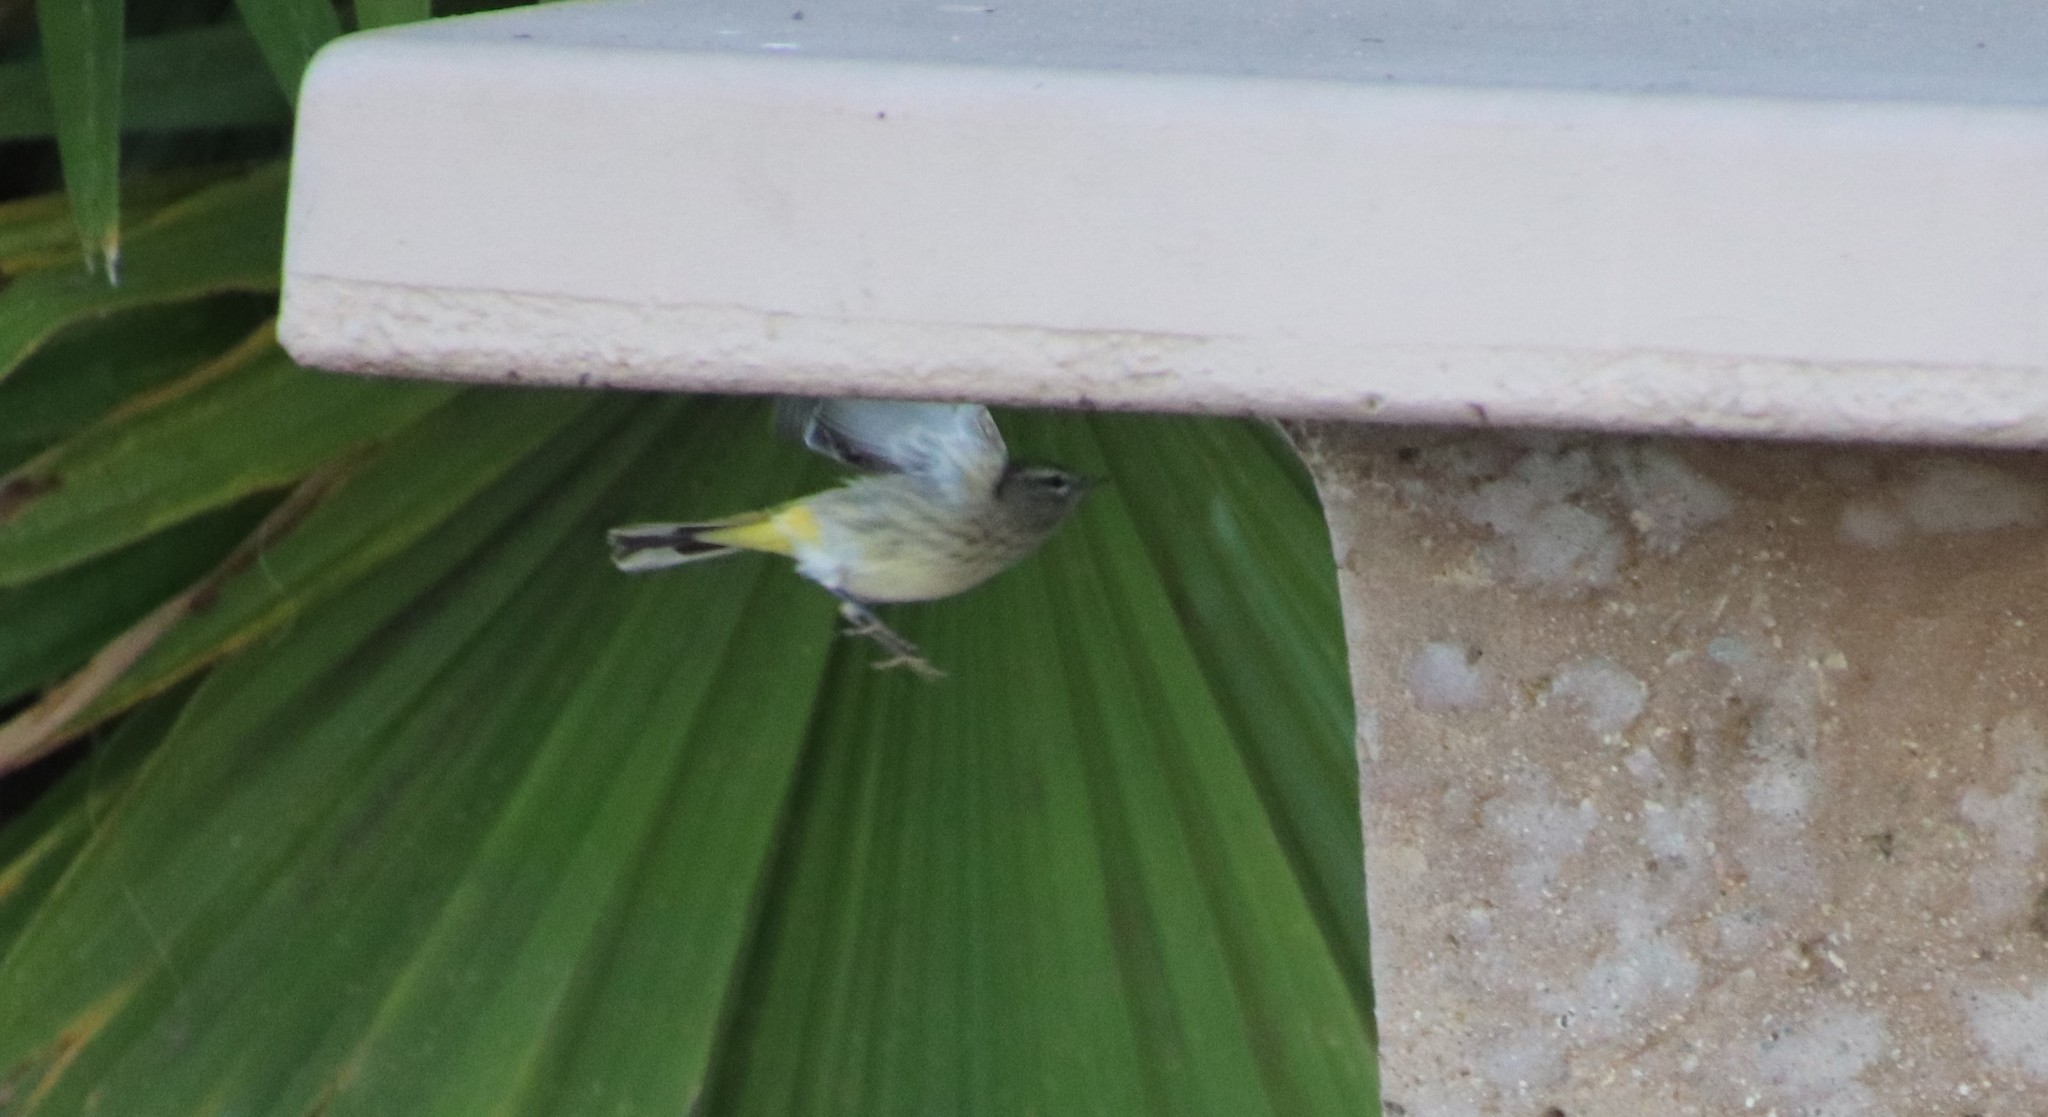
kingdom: Animalia
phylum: Chordata
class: Aves
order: Passeriformes
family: Parulidae
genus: Setophaga
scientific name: Setophaga palmarum
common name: Palm warbler
